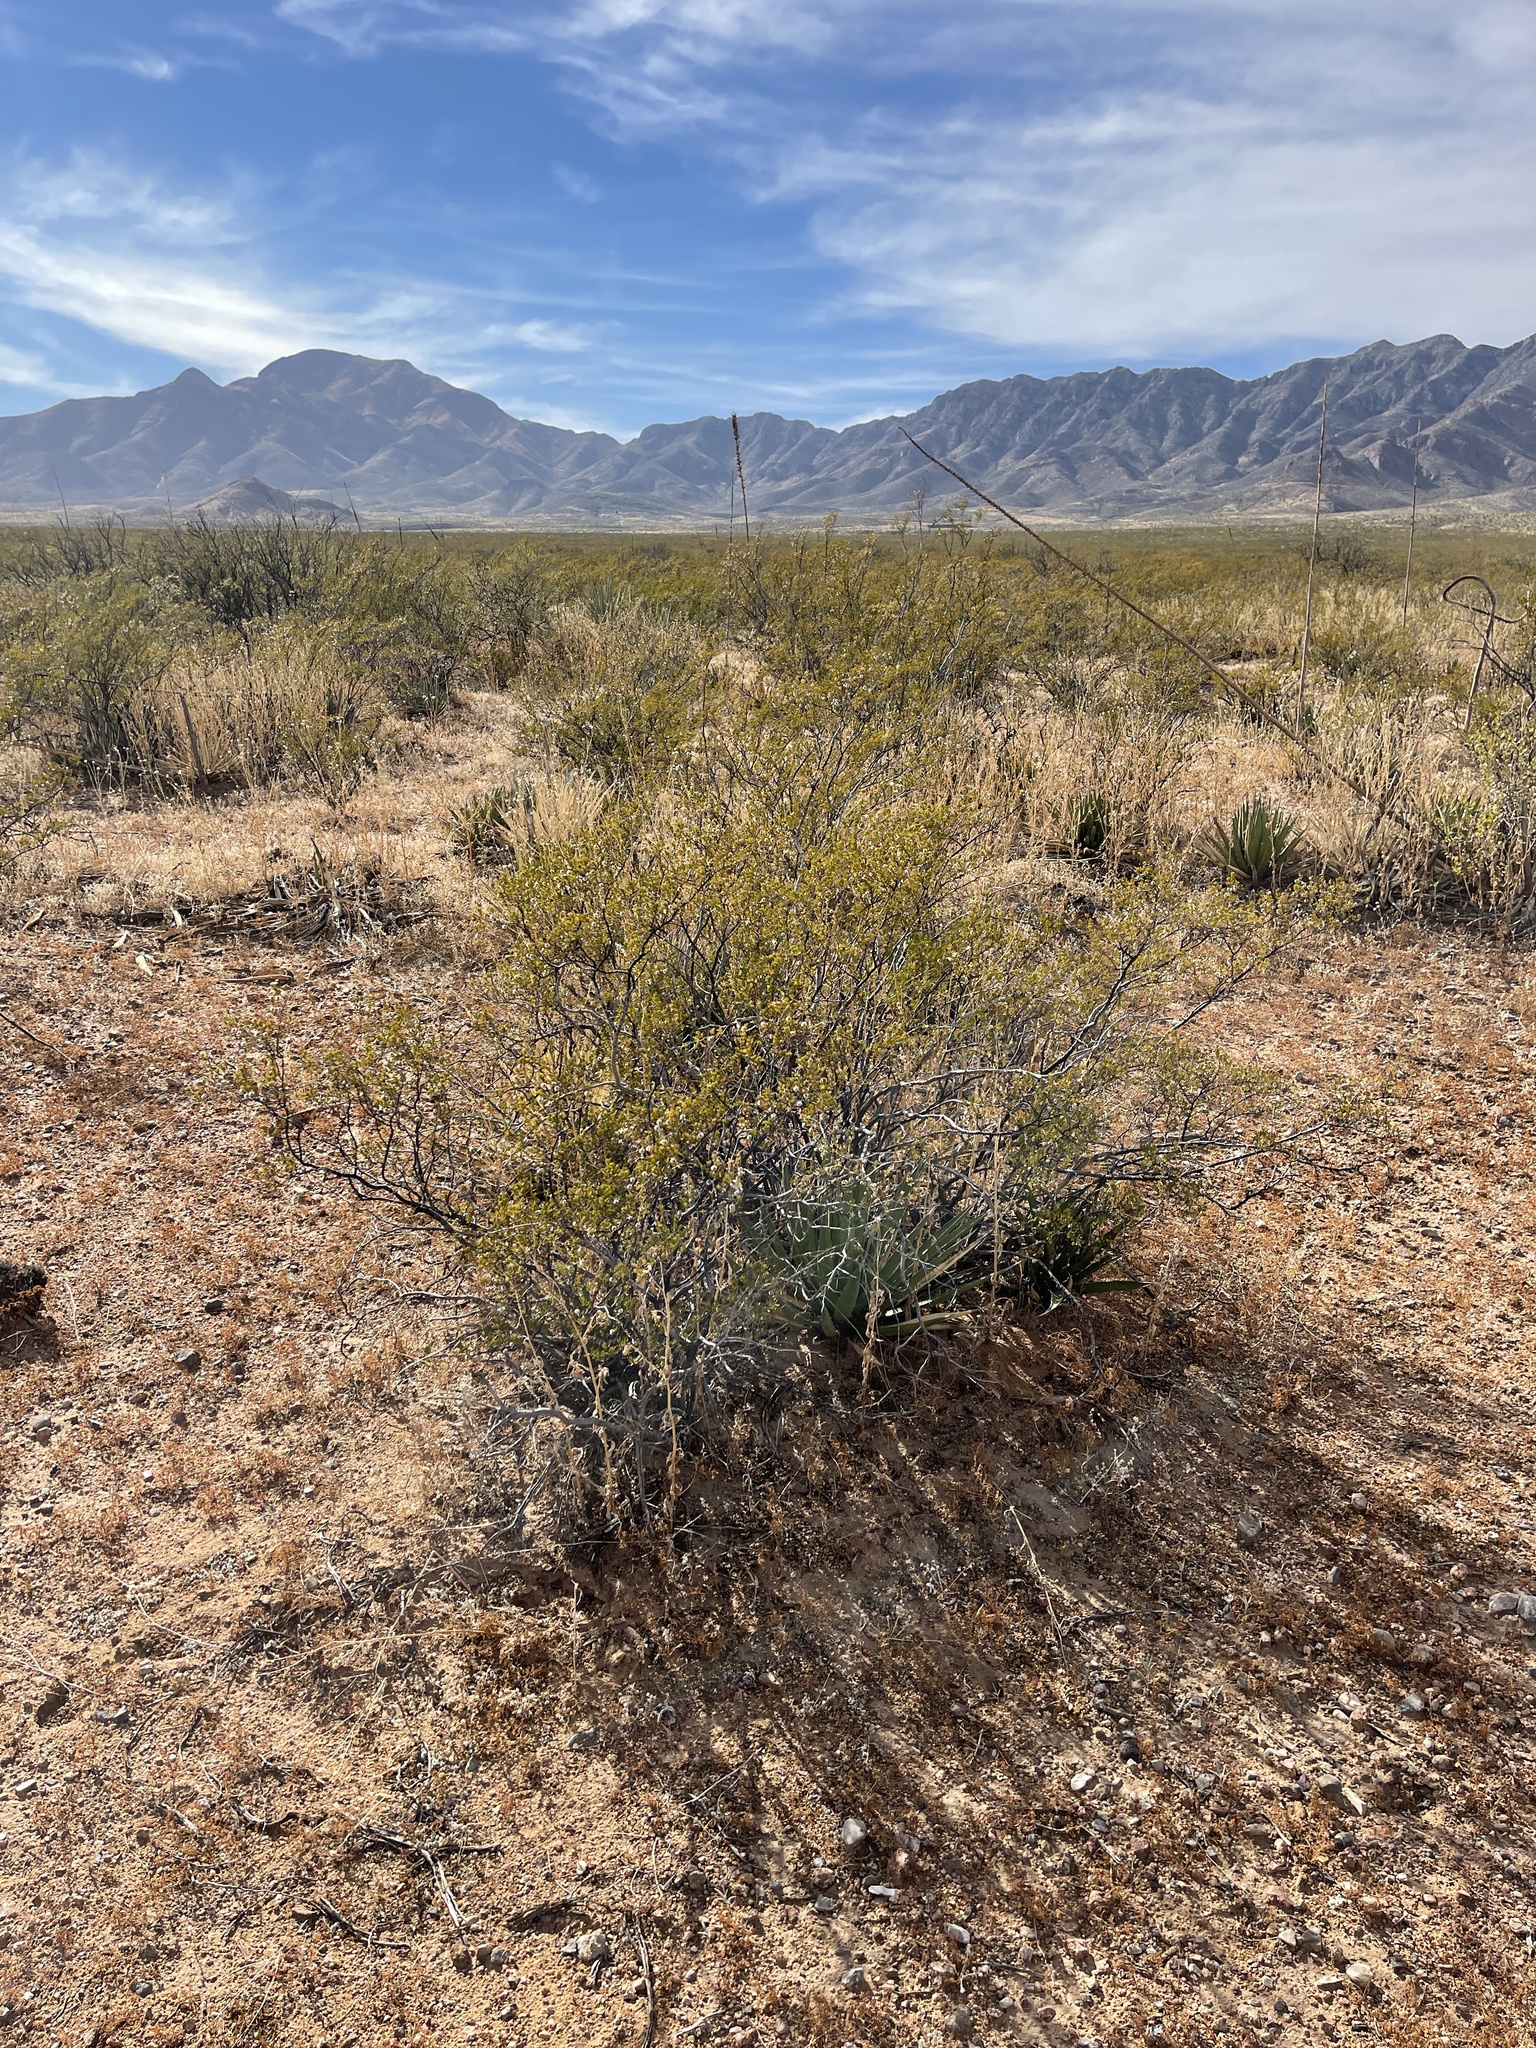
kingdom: Plantae
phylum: Tracheophyta
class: Magnoliopsida
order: Zygophyllales
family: Zygophyllaceae
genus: Larrea
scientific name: Larrea tridentata
